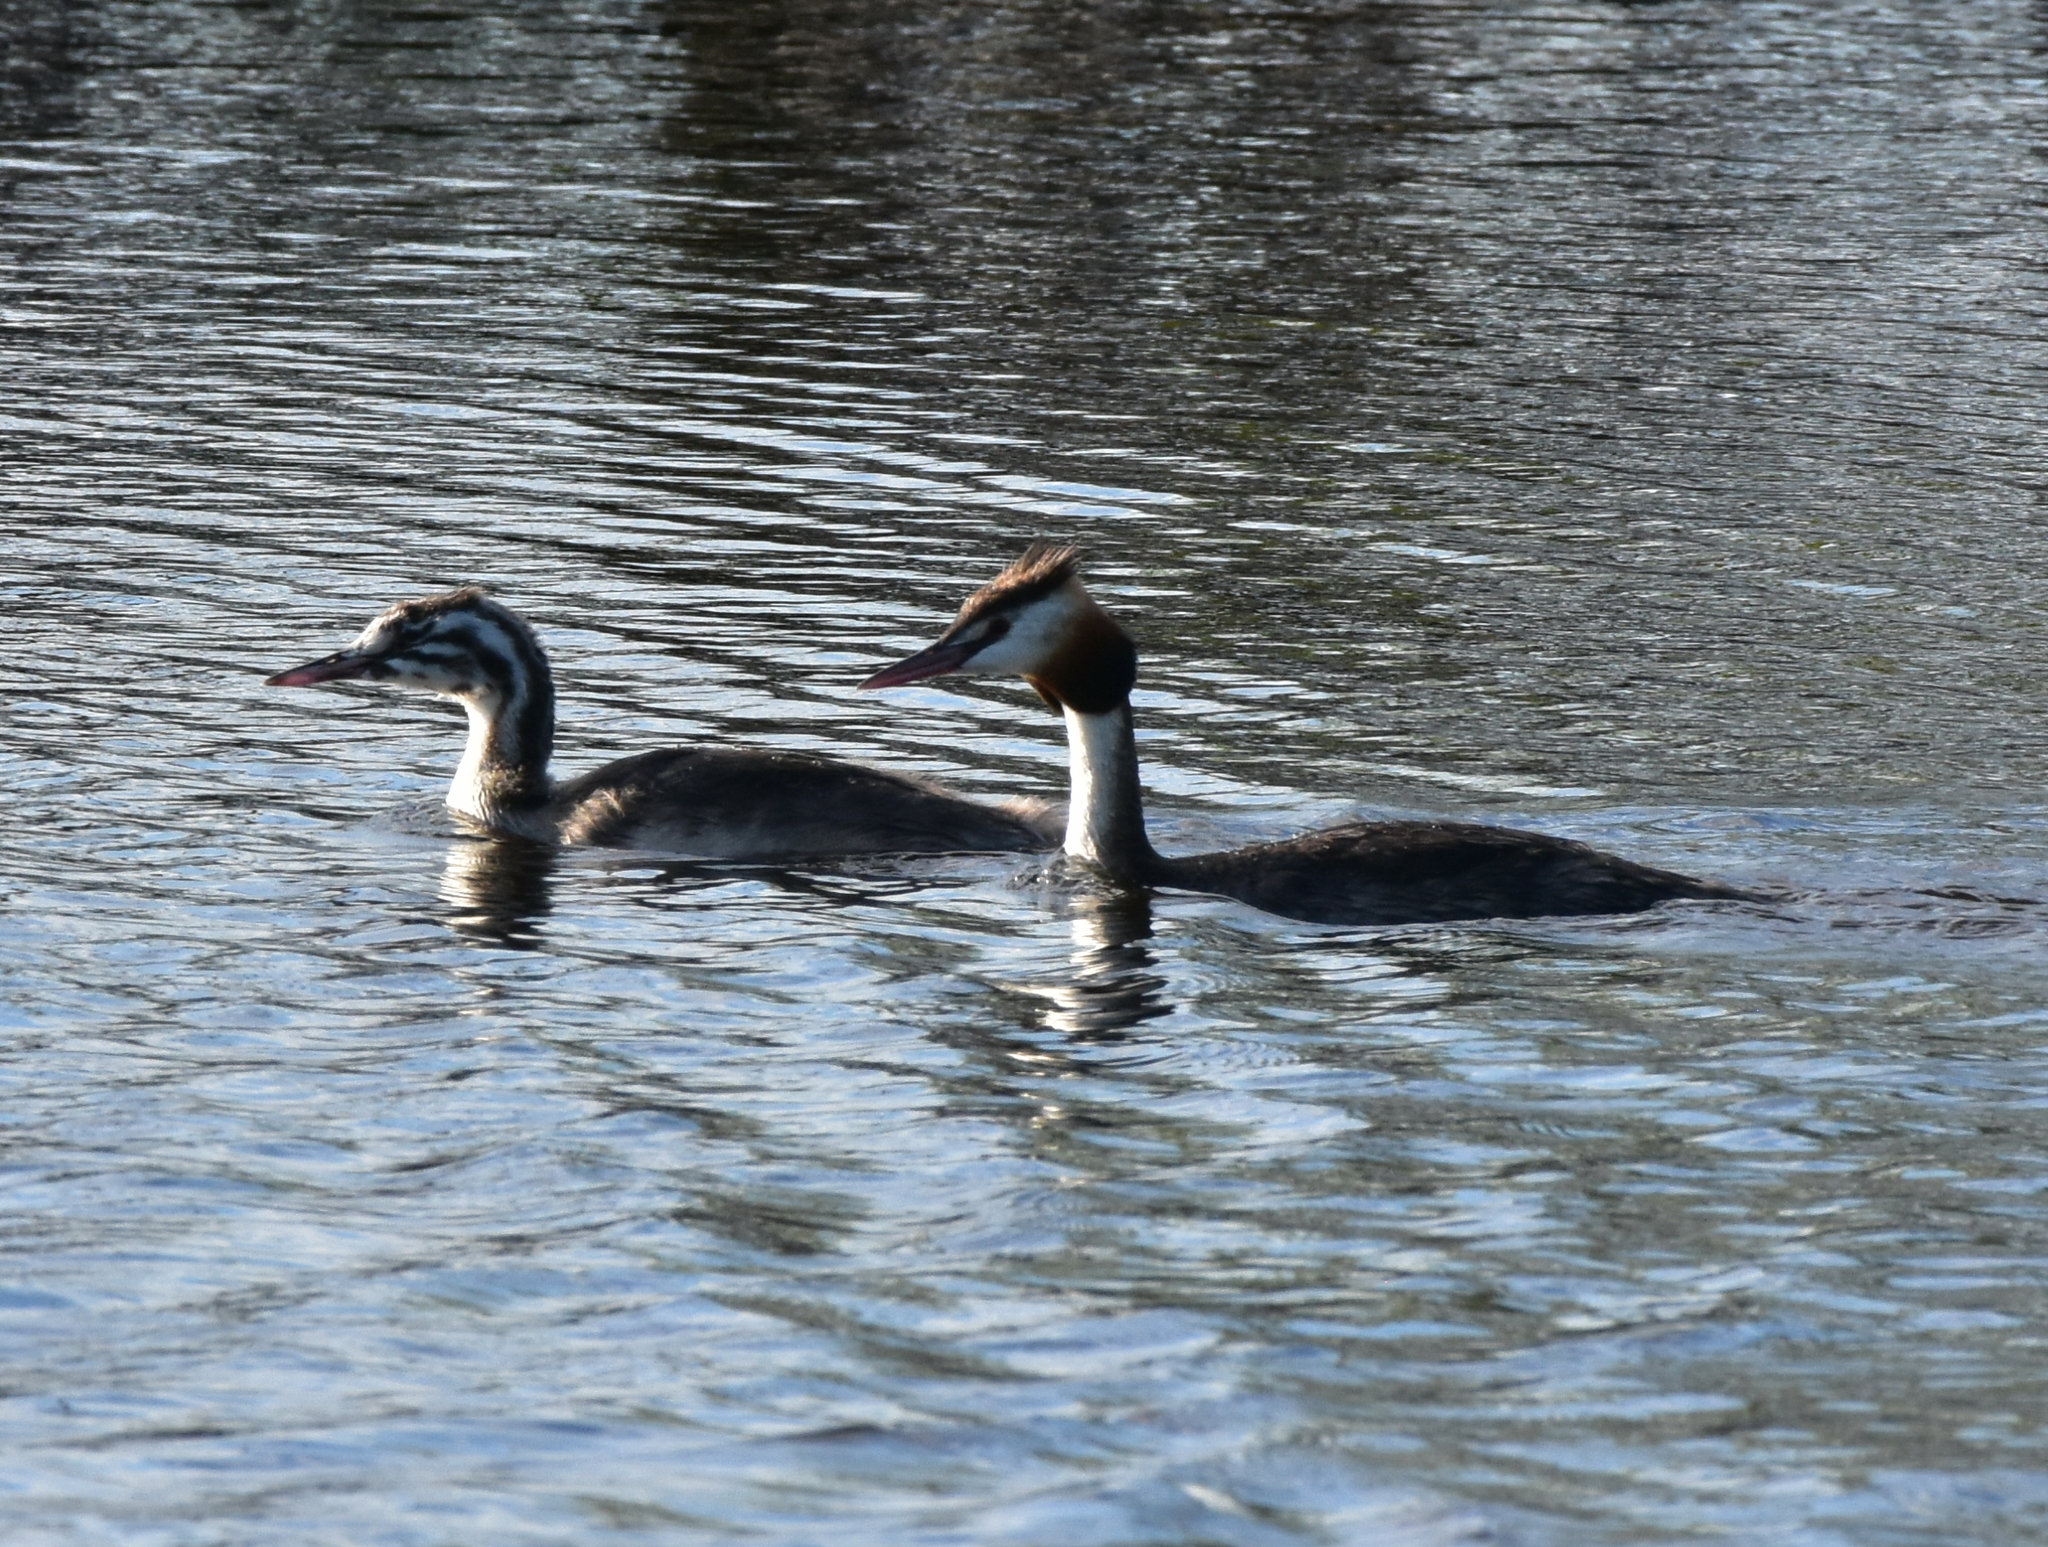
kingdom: Animalia
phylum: Chordata
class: Aves
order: Podicipediformes
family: Podicipedidae
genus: Podiceps
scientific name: Podiceps cristatus
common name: Great crested grebe
